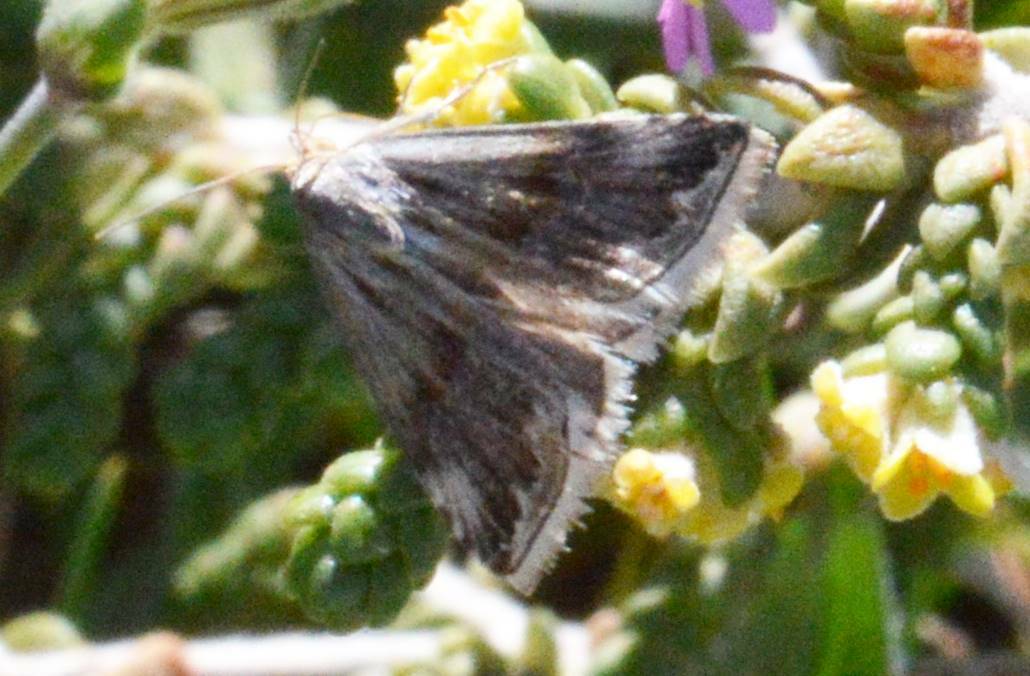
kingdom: Animalia
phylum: Arthropoda
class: Insecta
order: Lepidoptera
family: Noctuidae
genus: Eublemma
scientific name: Eublemma ostrina
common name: Purple marbled
